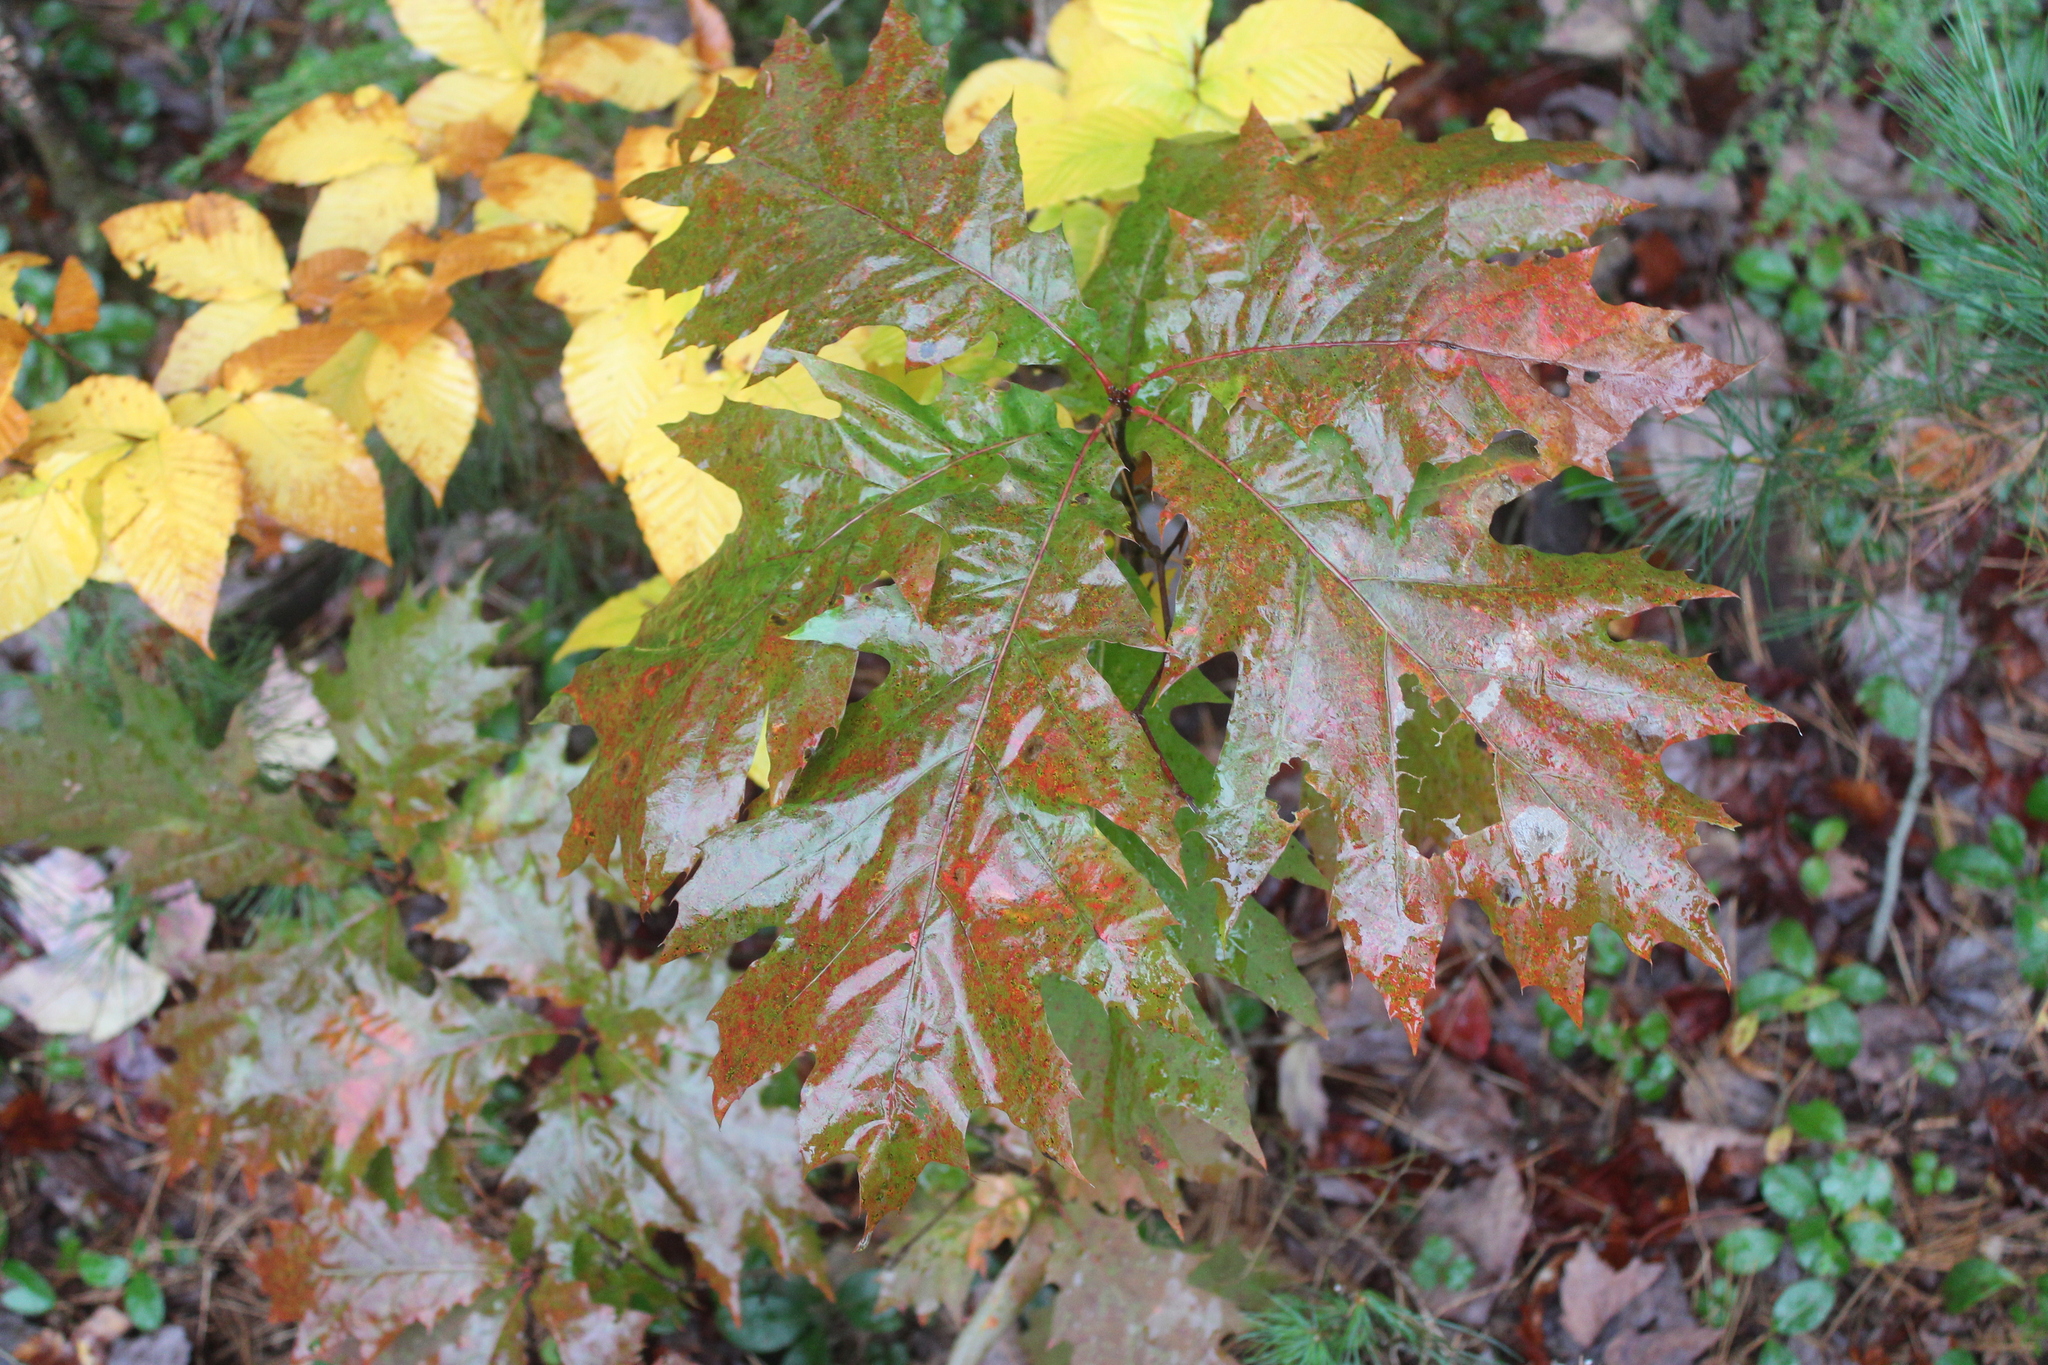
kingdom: Plantae
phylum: Tracheophyta
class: Magnoliopsida
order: Fagales
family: Fagaceae
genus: Quercus
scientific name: Quercus rubra
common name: Red oak
